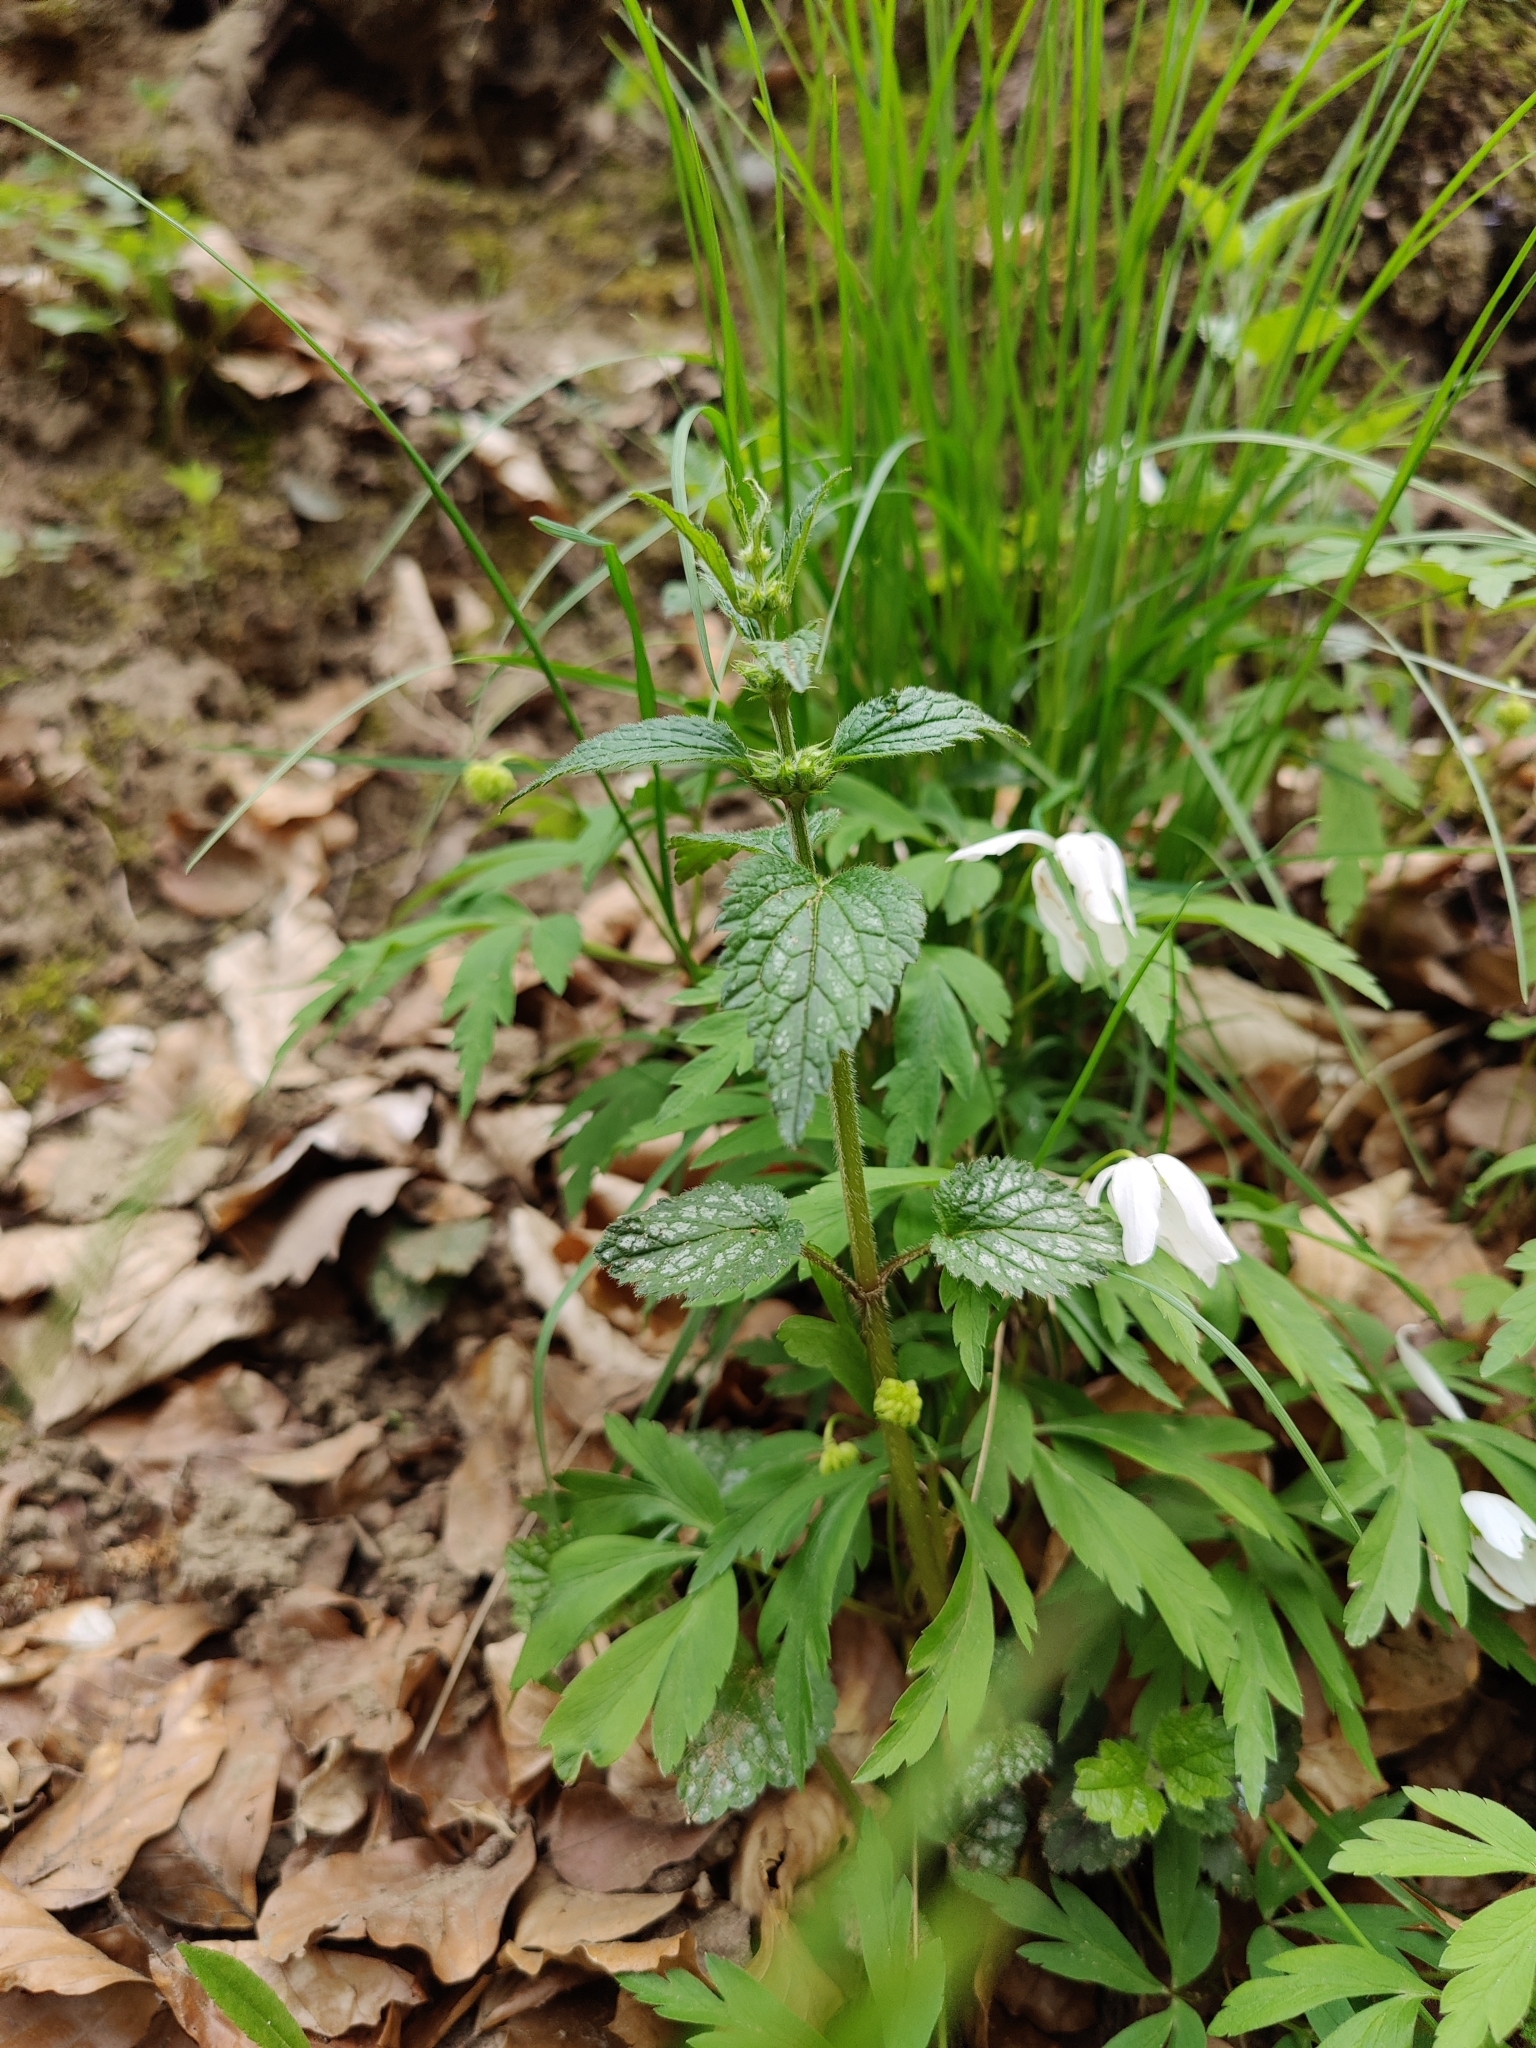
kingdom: Plantae
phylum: Tracheophyta
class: Magnoliopsida
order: Lamiales
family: Lamiaceae
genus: Lamium
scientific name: Lamium galeobdolon
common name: Yellow archangel
